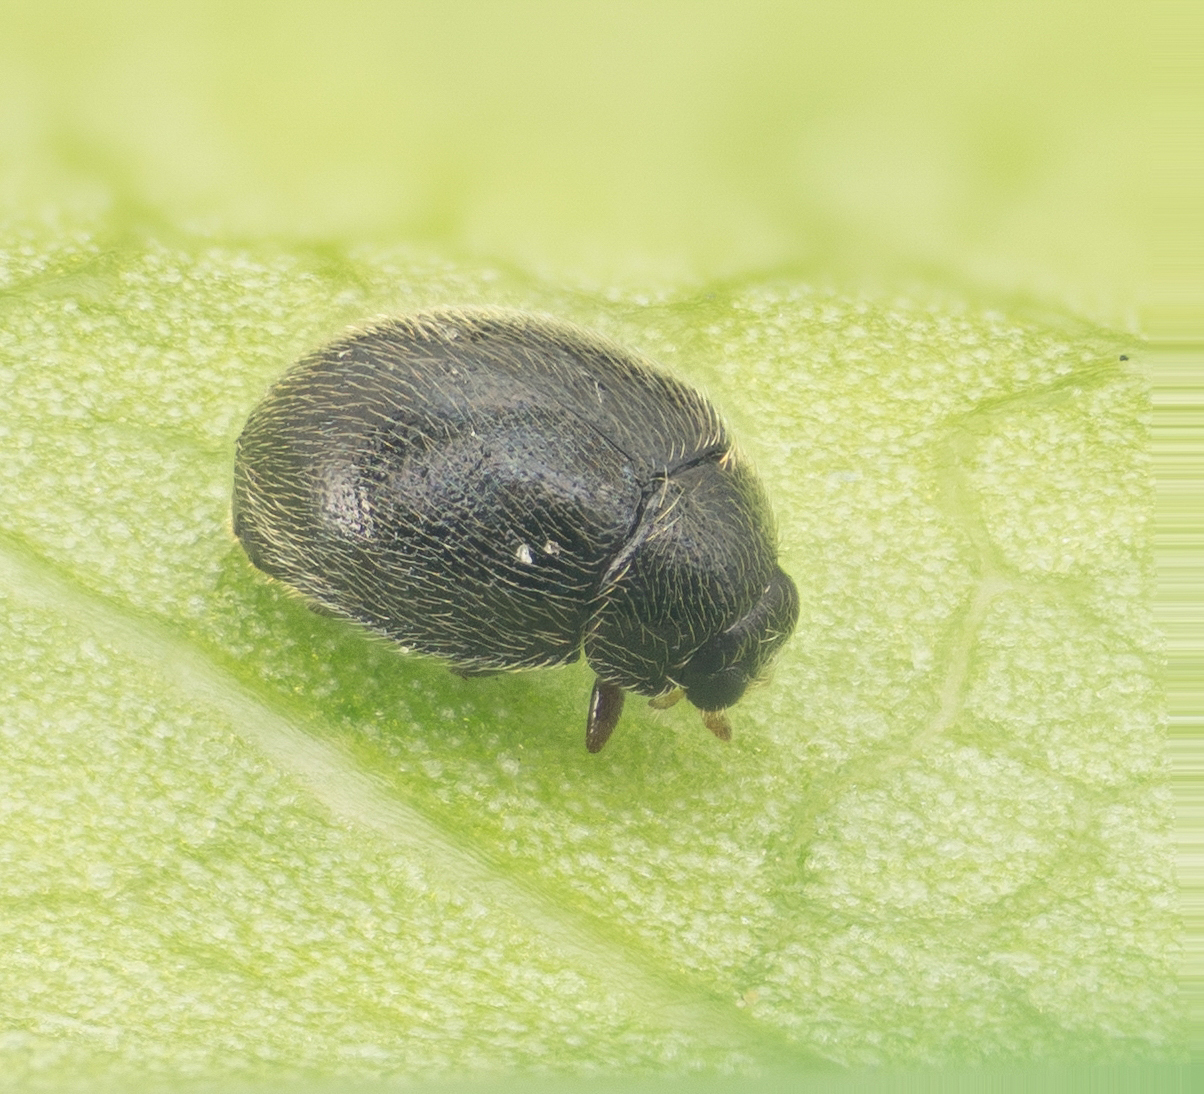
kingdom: Animalia
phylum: Arthropoda
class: Insecta
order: Coleoptera
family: Coccinellidae
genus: Stethorus
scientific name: Stethorus punctum
